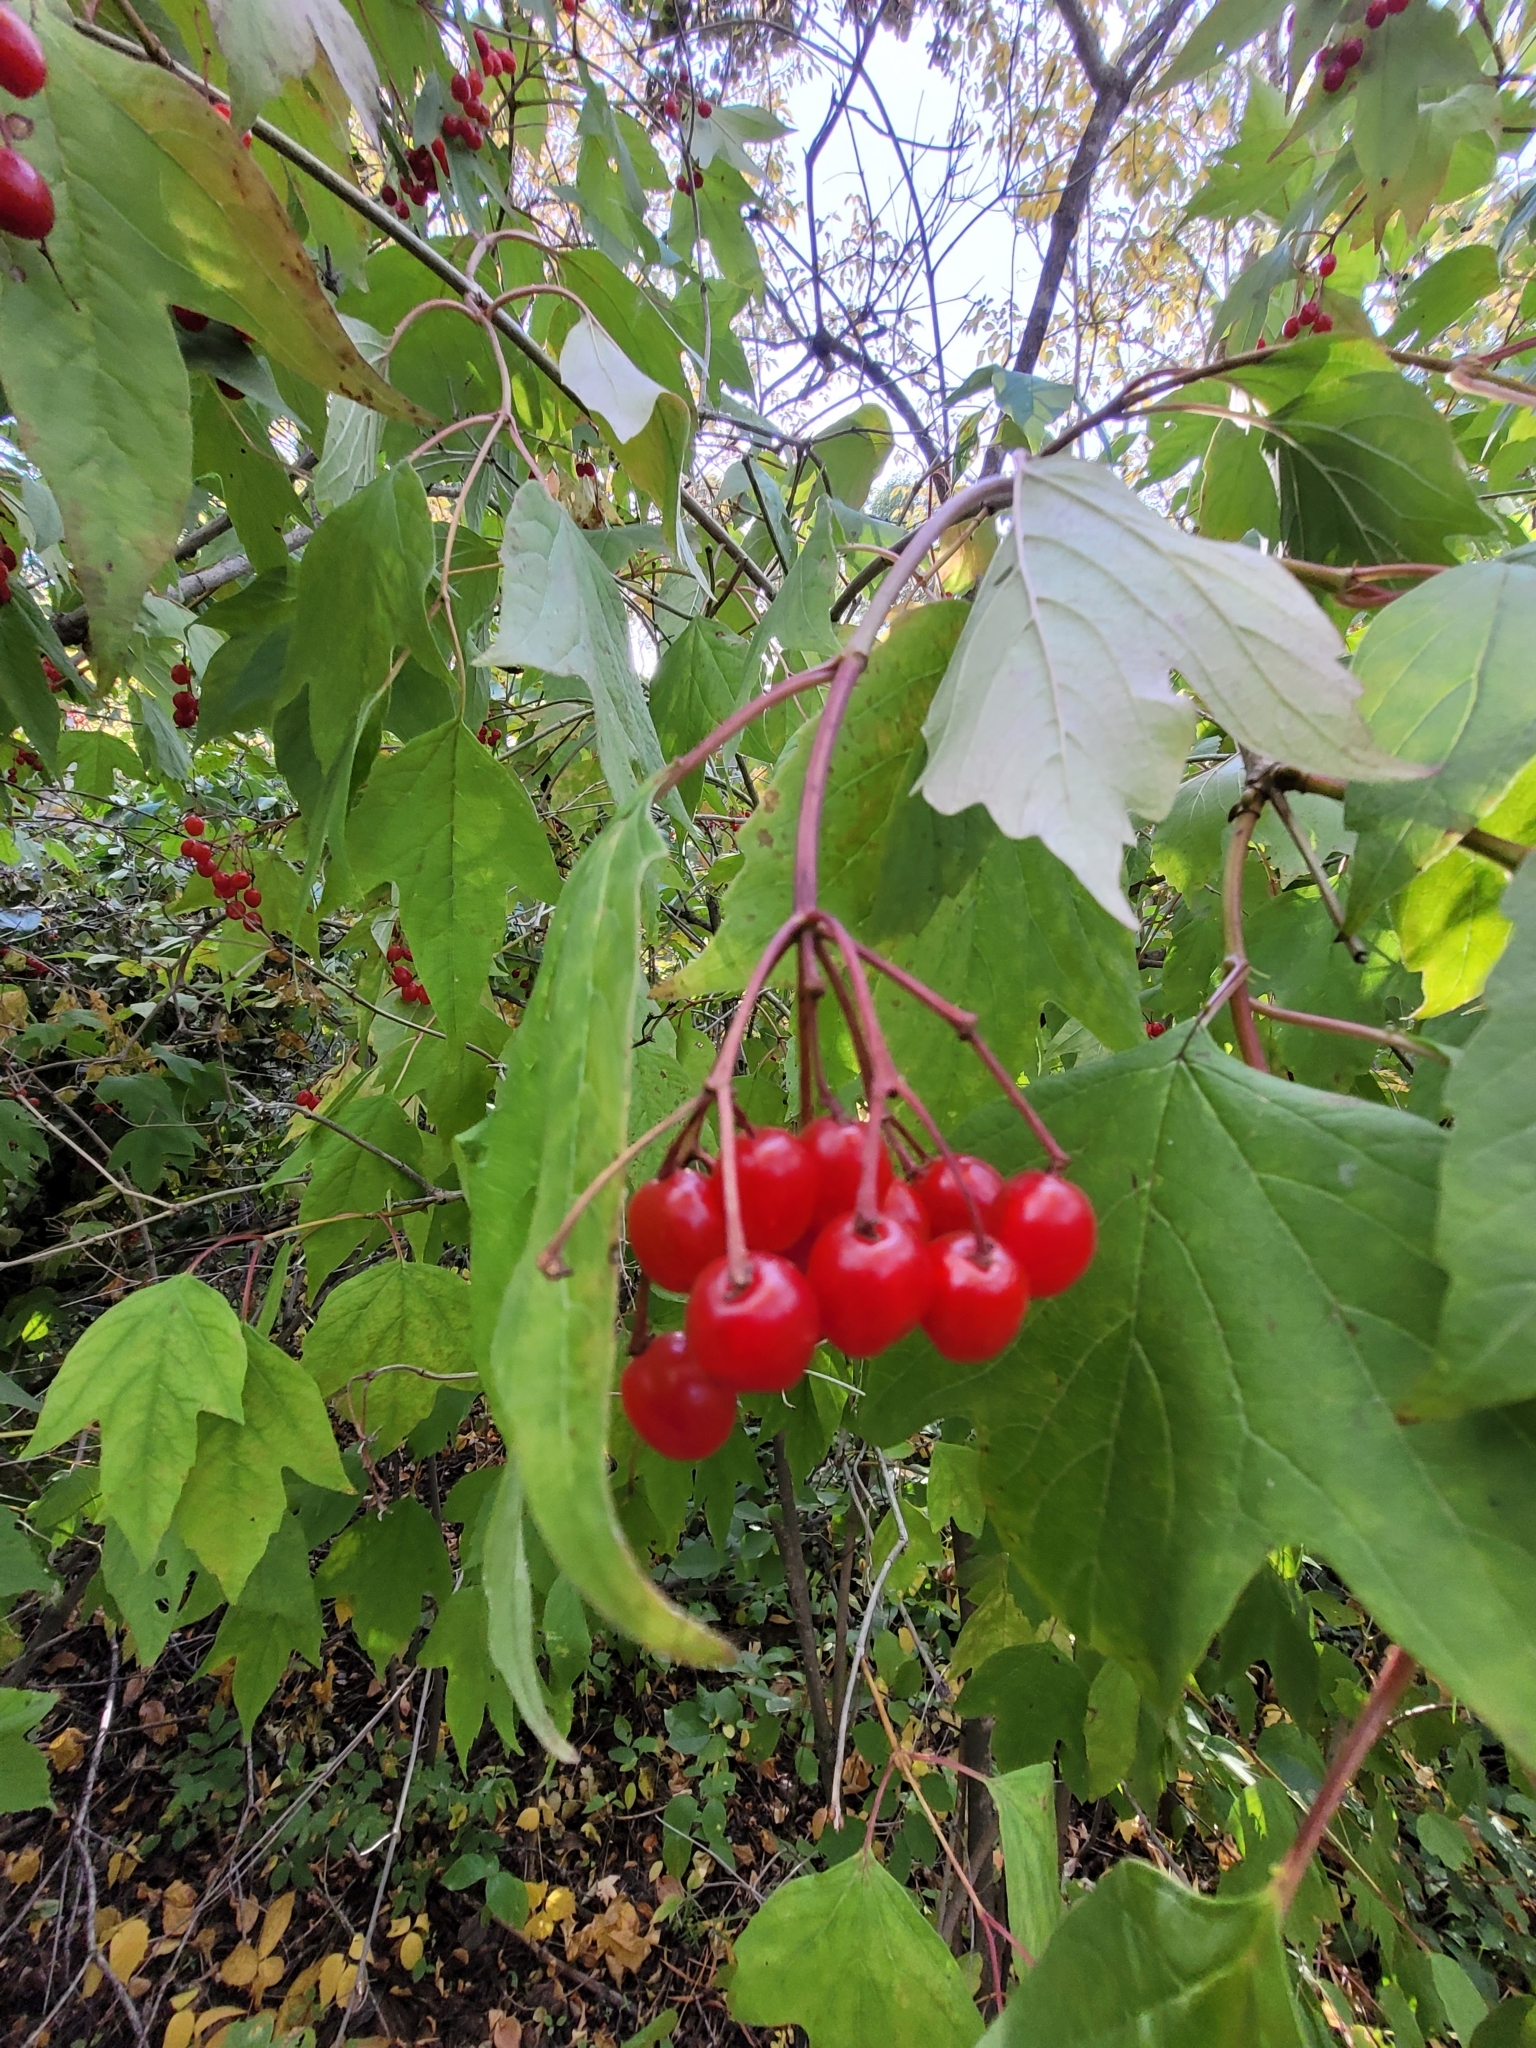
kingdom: Plantae
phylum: Tracheophyta
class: Magnoliopsida
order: Dipsacales
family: Viburnaceae
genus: Viburnum
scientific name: Viburnum opulus
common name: Guelder-rose
